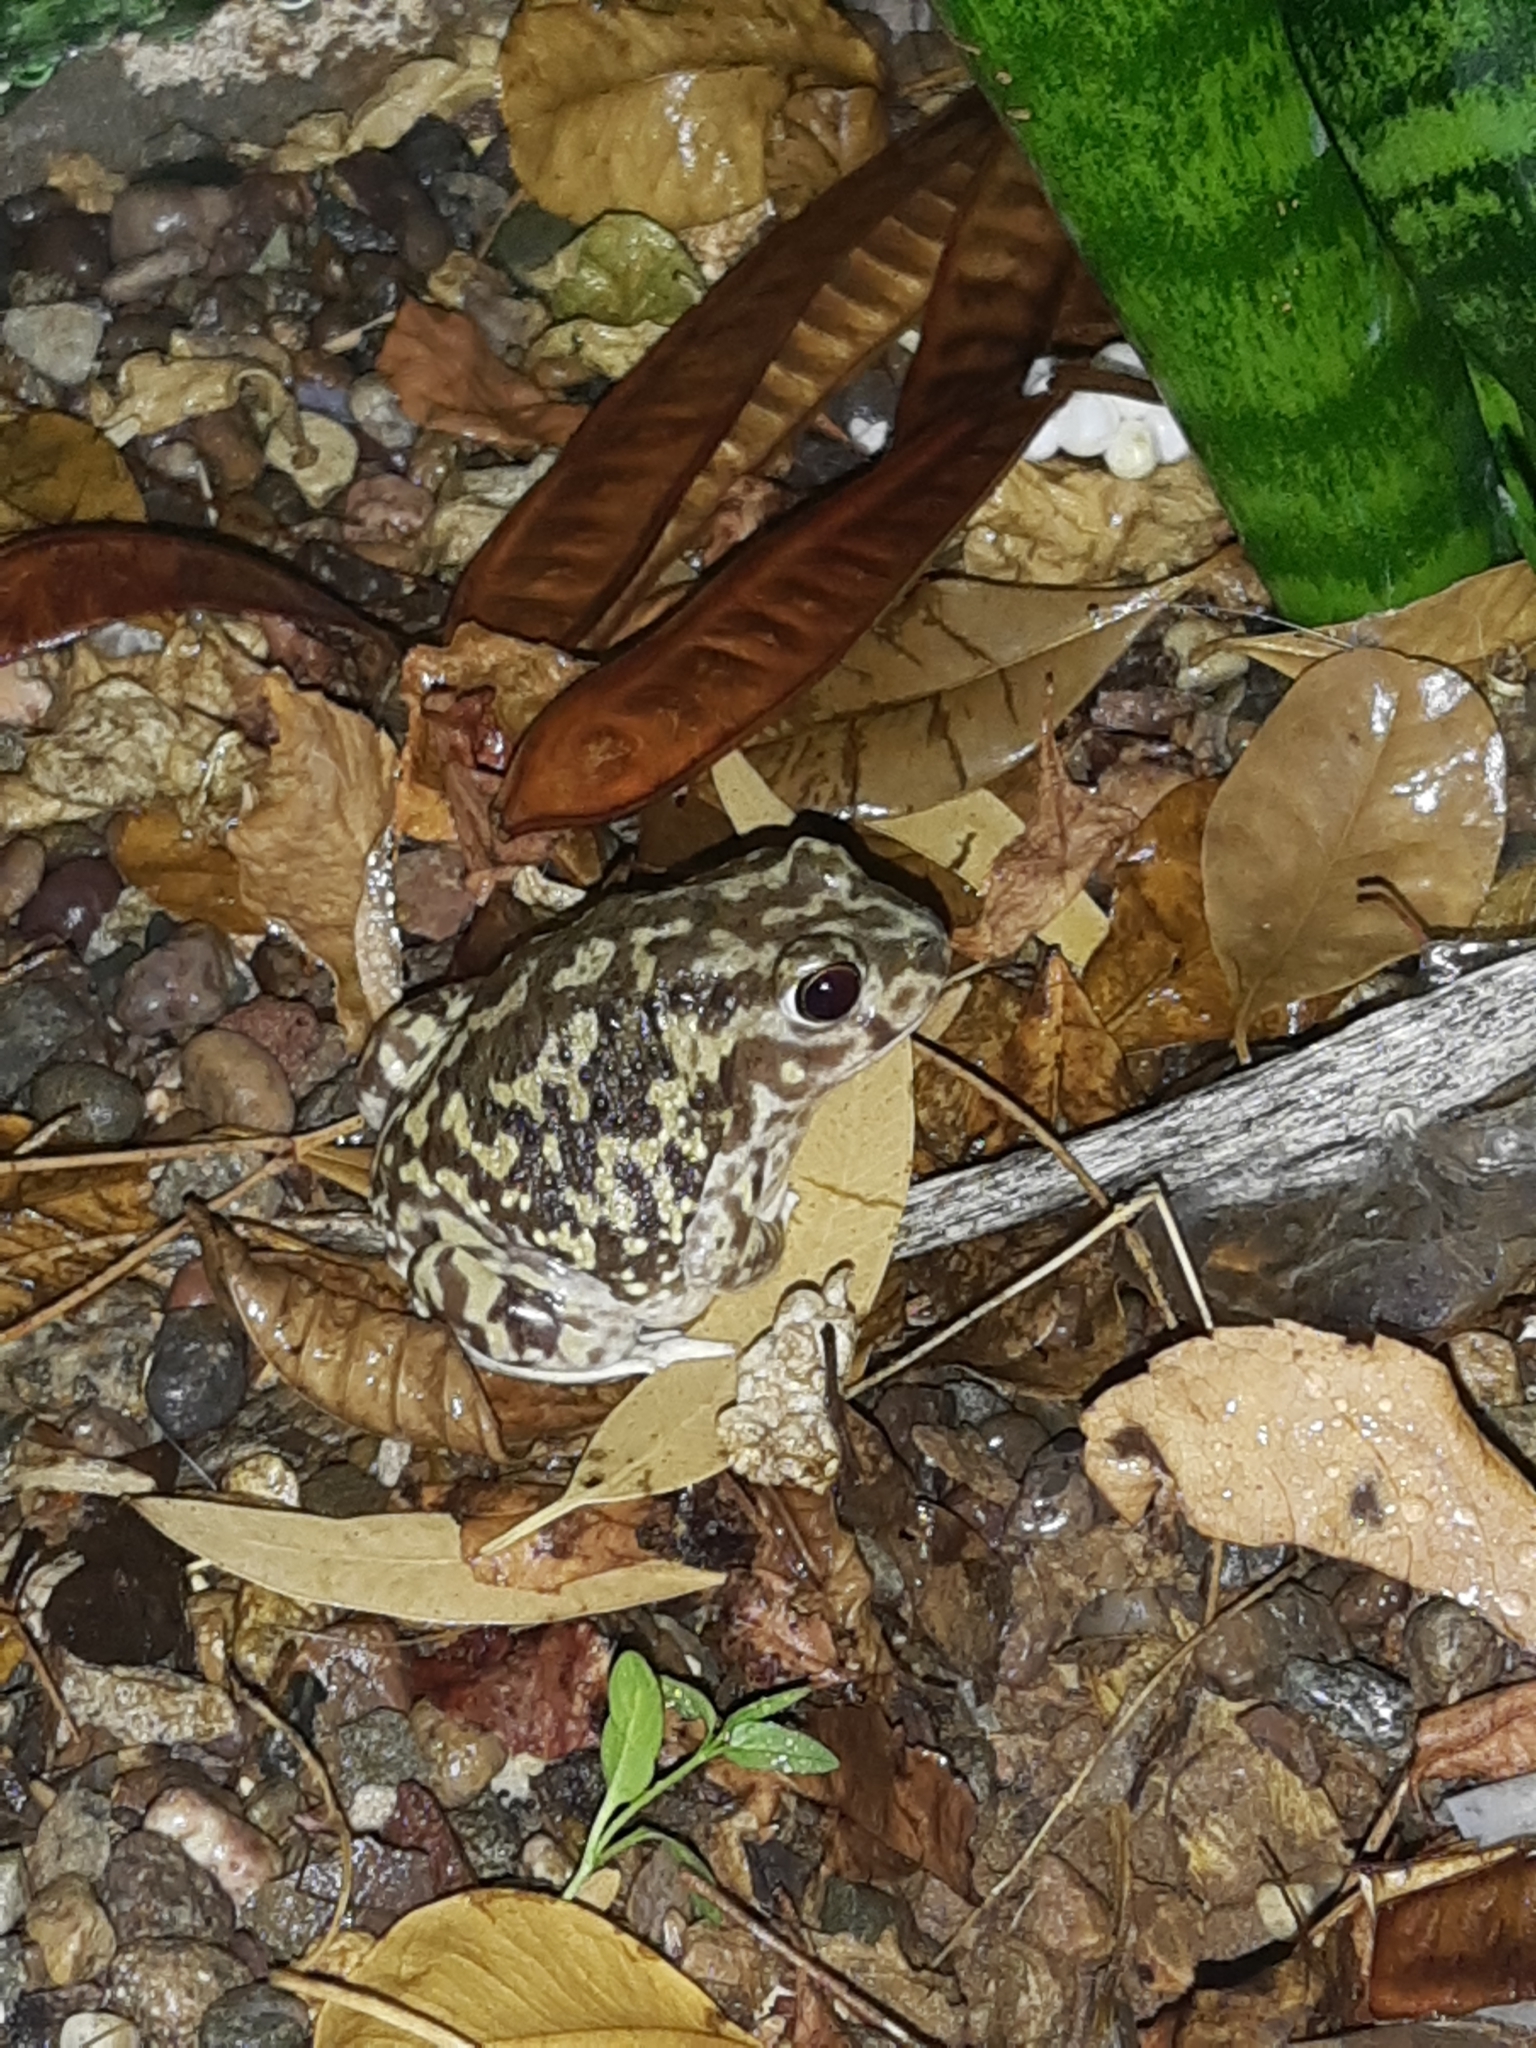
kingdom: Animalia
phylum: Chordata
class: Amphibia
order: Anura
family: Scaphiopodidae
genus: Scaphiopus
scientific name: Scaphiopus couchii
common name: Couch's spadefoot toad
